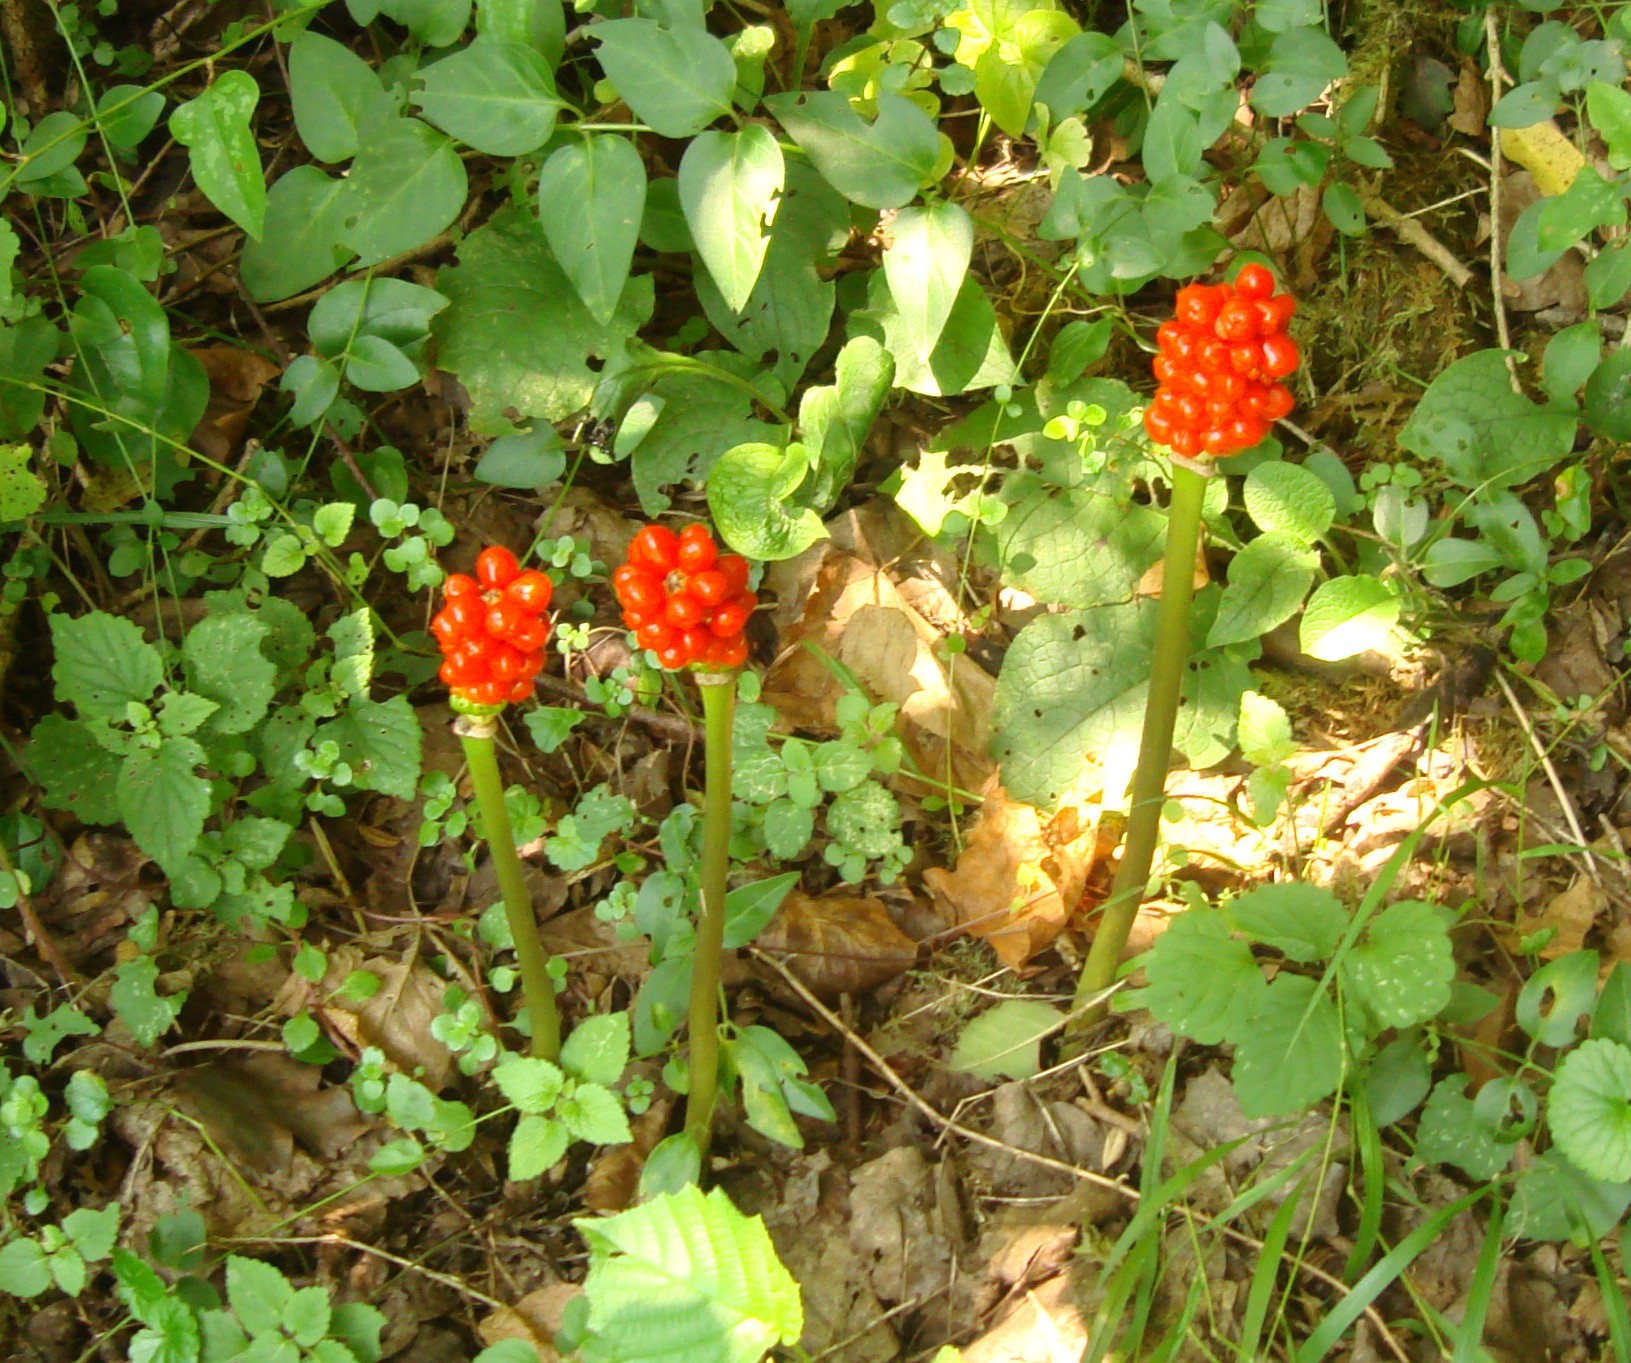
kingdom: Plantae
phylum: Tracheophyta
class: Liliopsida
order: Alismatales
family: Araceae
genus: Arum
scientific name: Arum maculatum
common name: Lords-and-ladies
